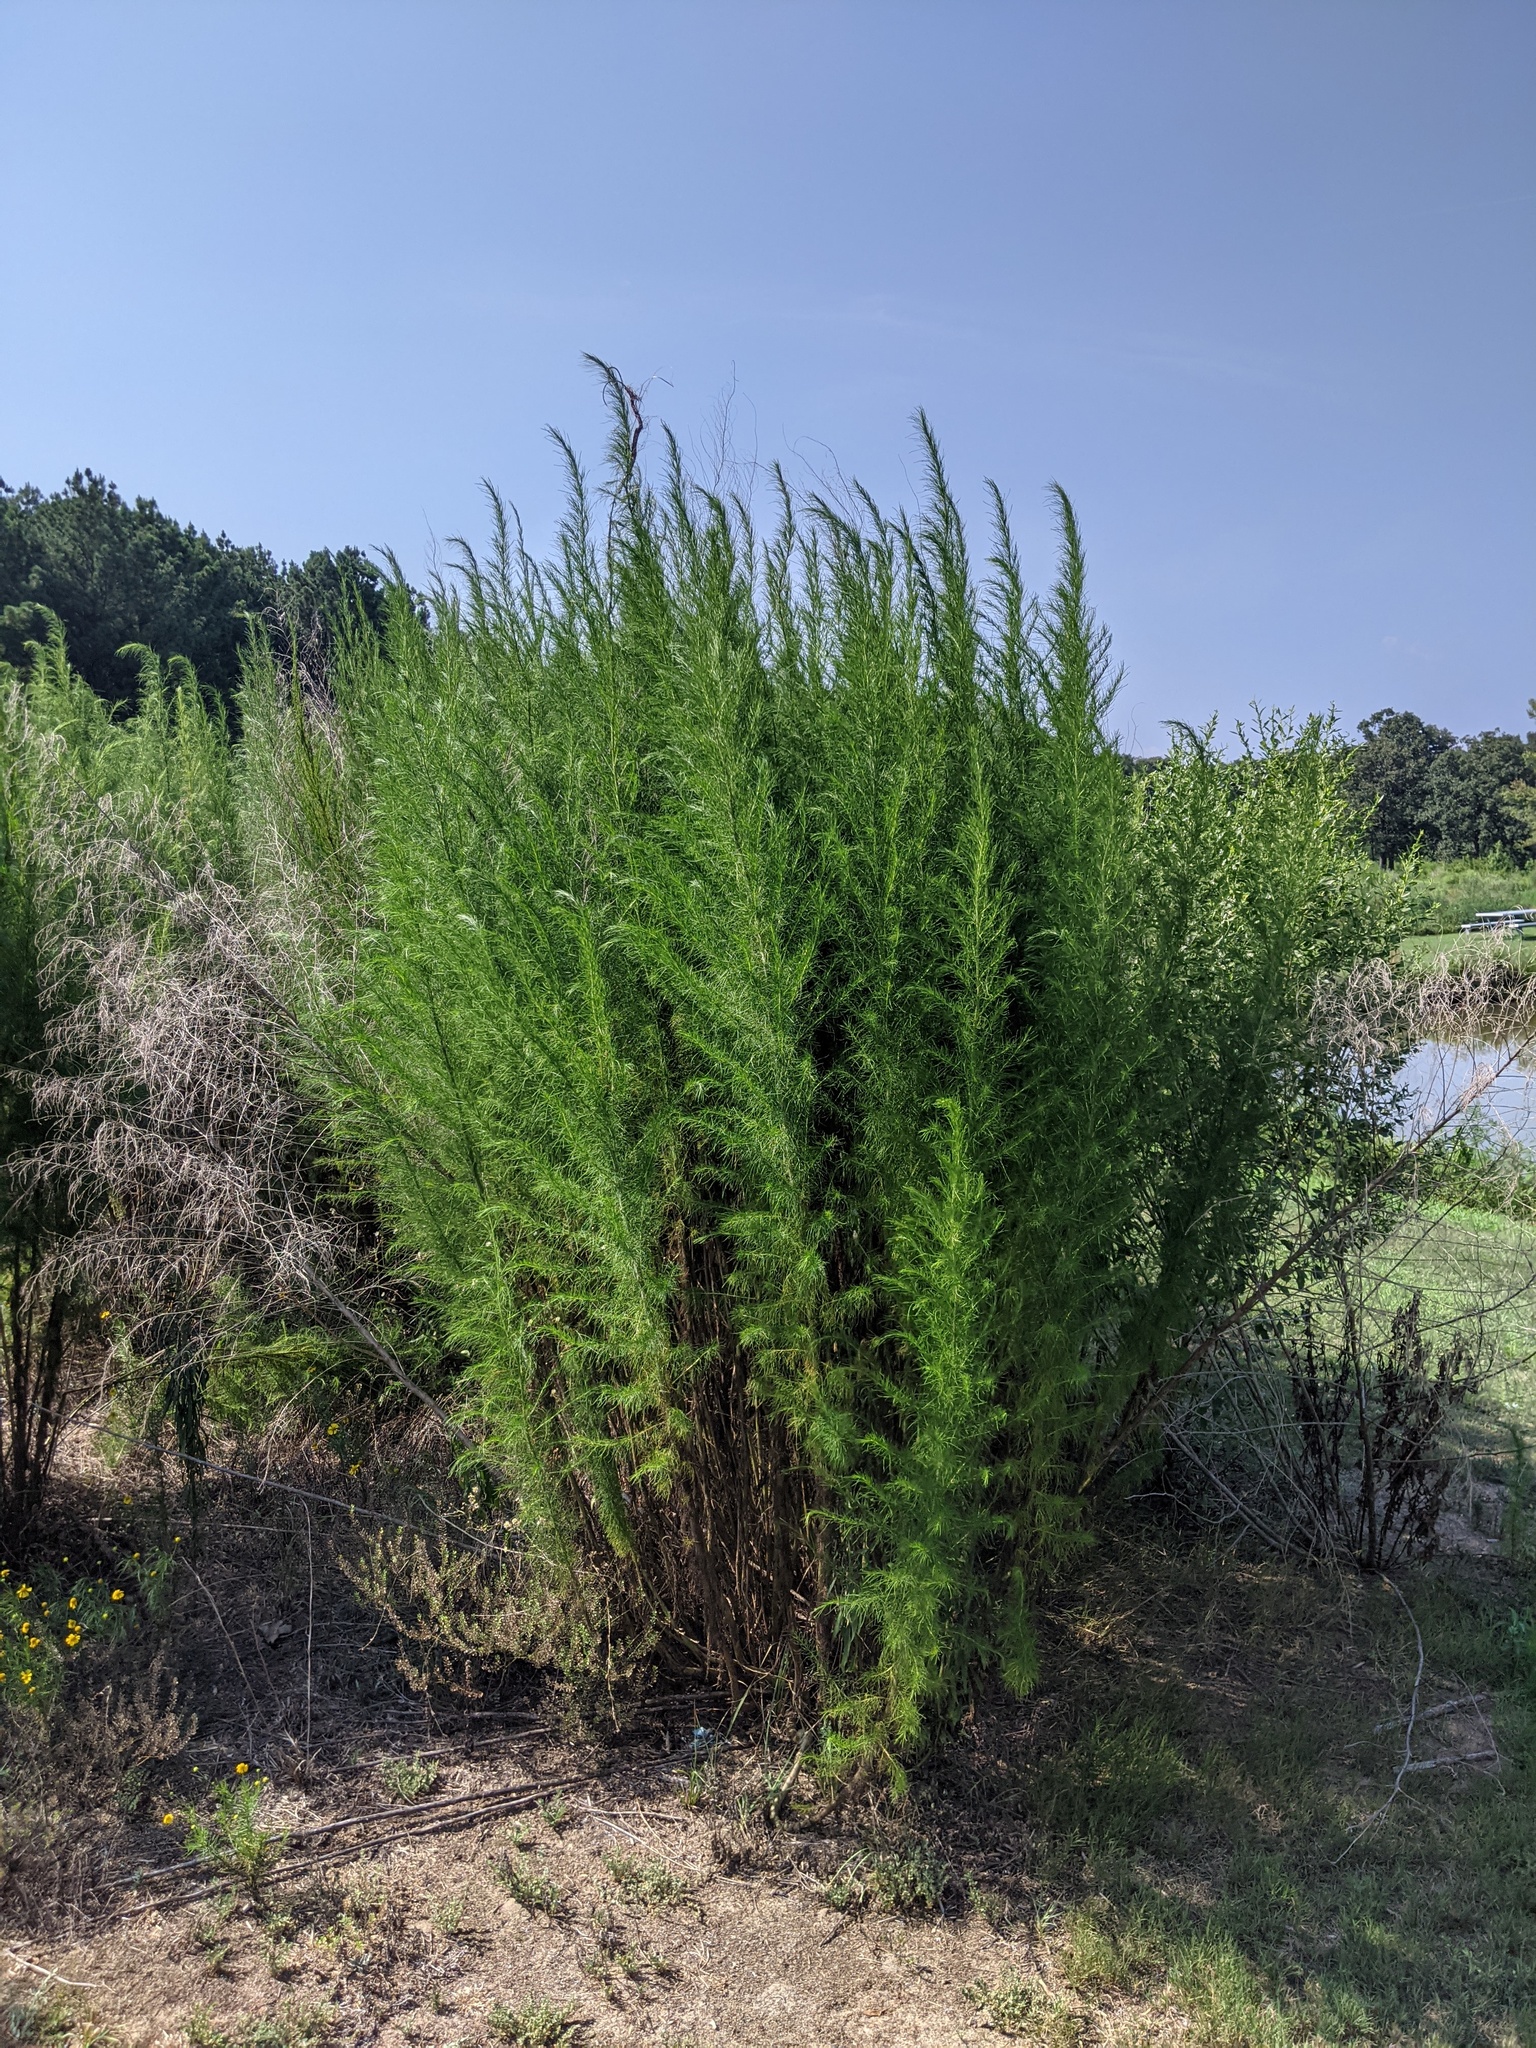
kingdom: Plantae
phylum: Tracheophyta
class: Magnoliopsida
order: Asterales
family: Asteraceae
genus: Eupatorium
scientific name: Eupatorium capillifolium
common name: Dog-fennel
